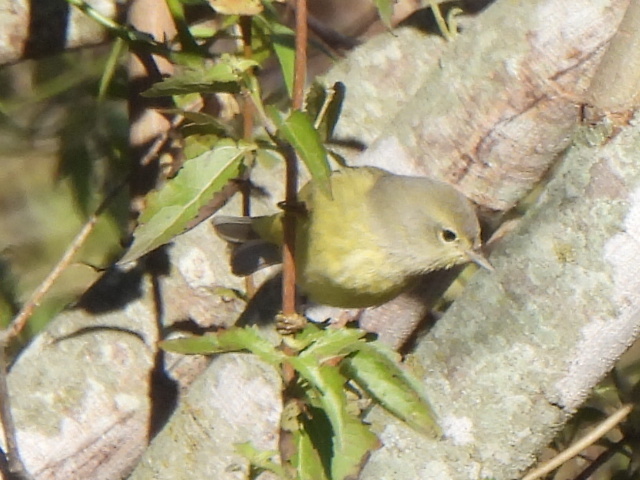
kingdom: Animalia
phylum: Chordata
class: Aves
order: Passeriformes
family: Parulidae
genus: Leiothlypis
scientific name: Leiothlypis celata
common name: Orange-crowned warbler
